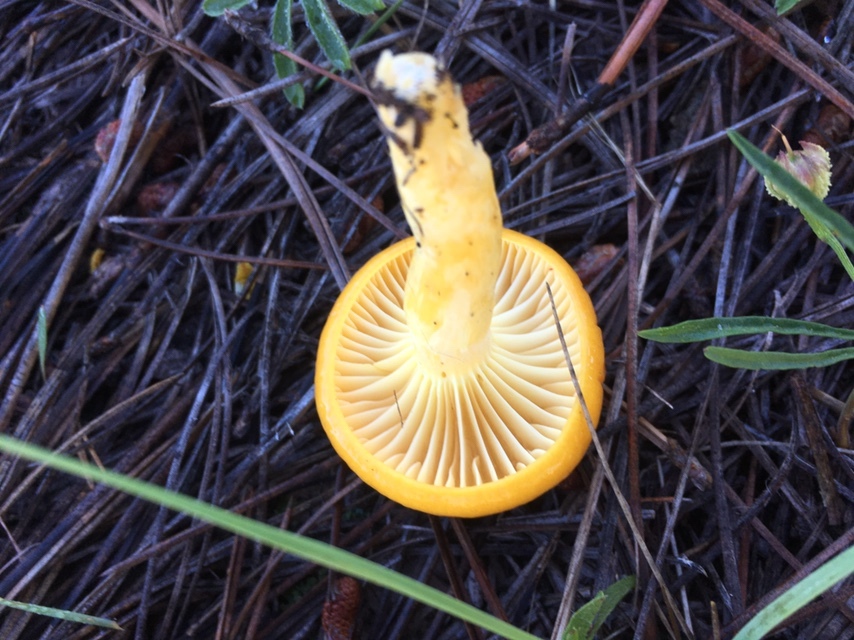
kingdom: Fungi
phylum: Basidiomycota
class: Agaricomycetes
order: Agaricales
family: Hygrophoraceae
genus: Hygrophorus
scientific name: Hygrophorus siccipes
